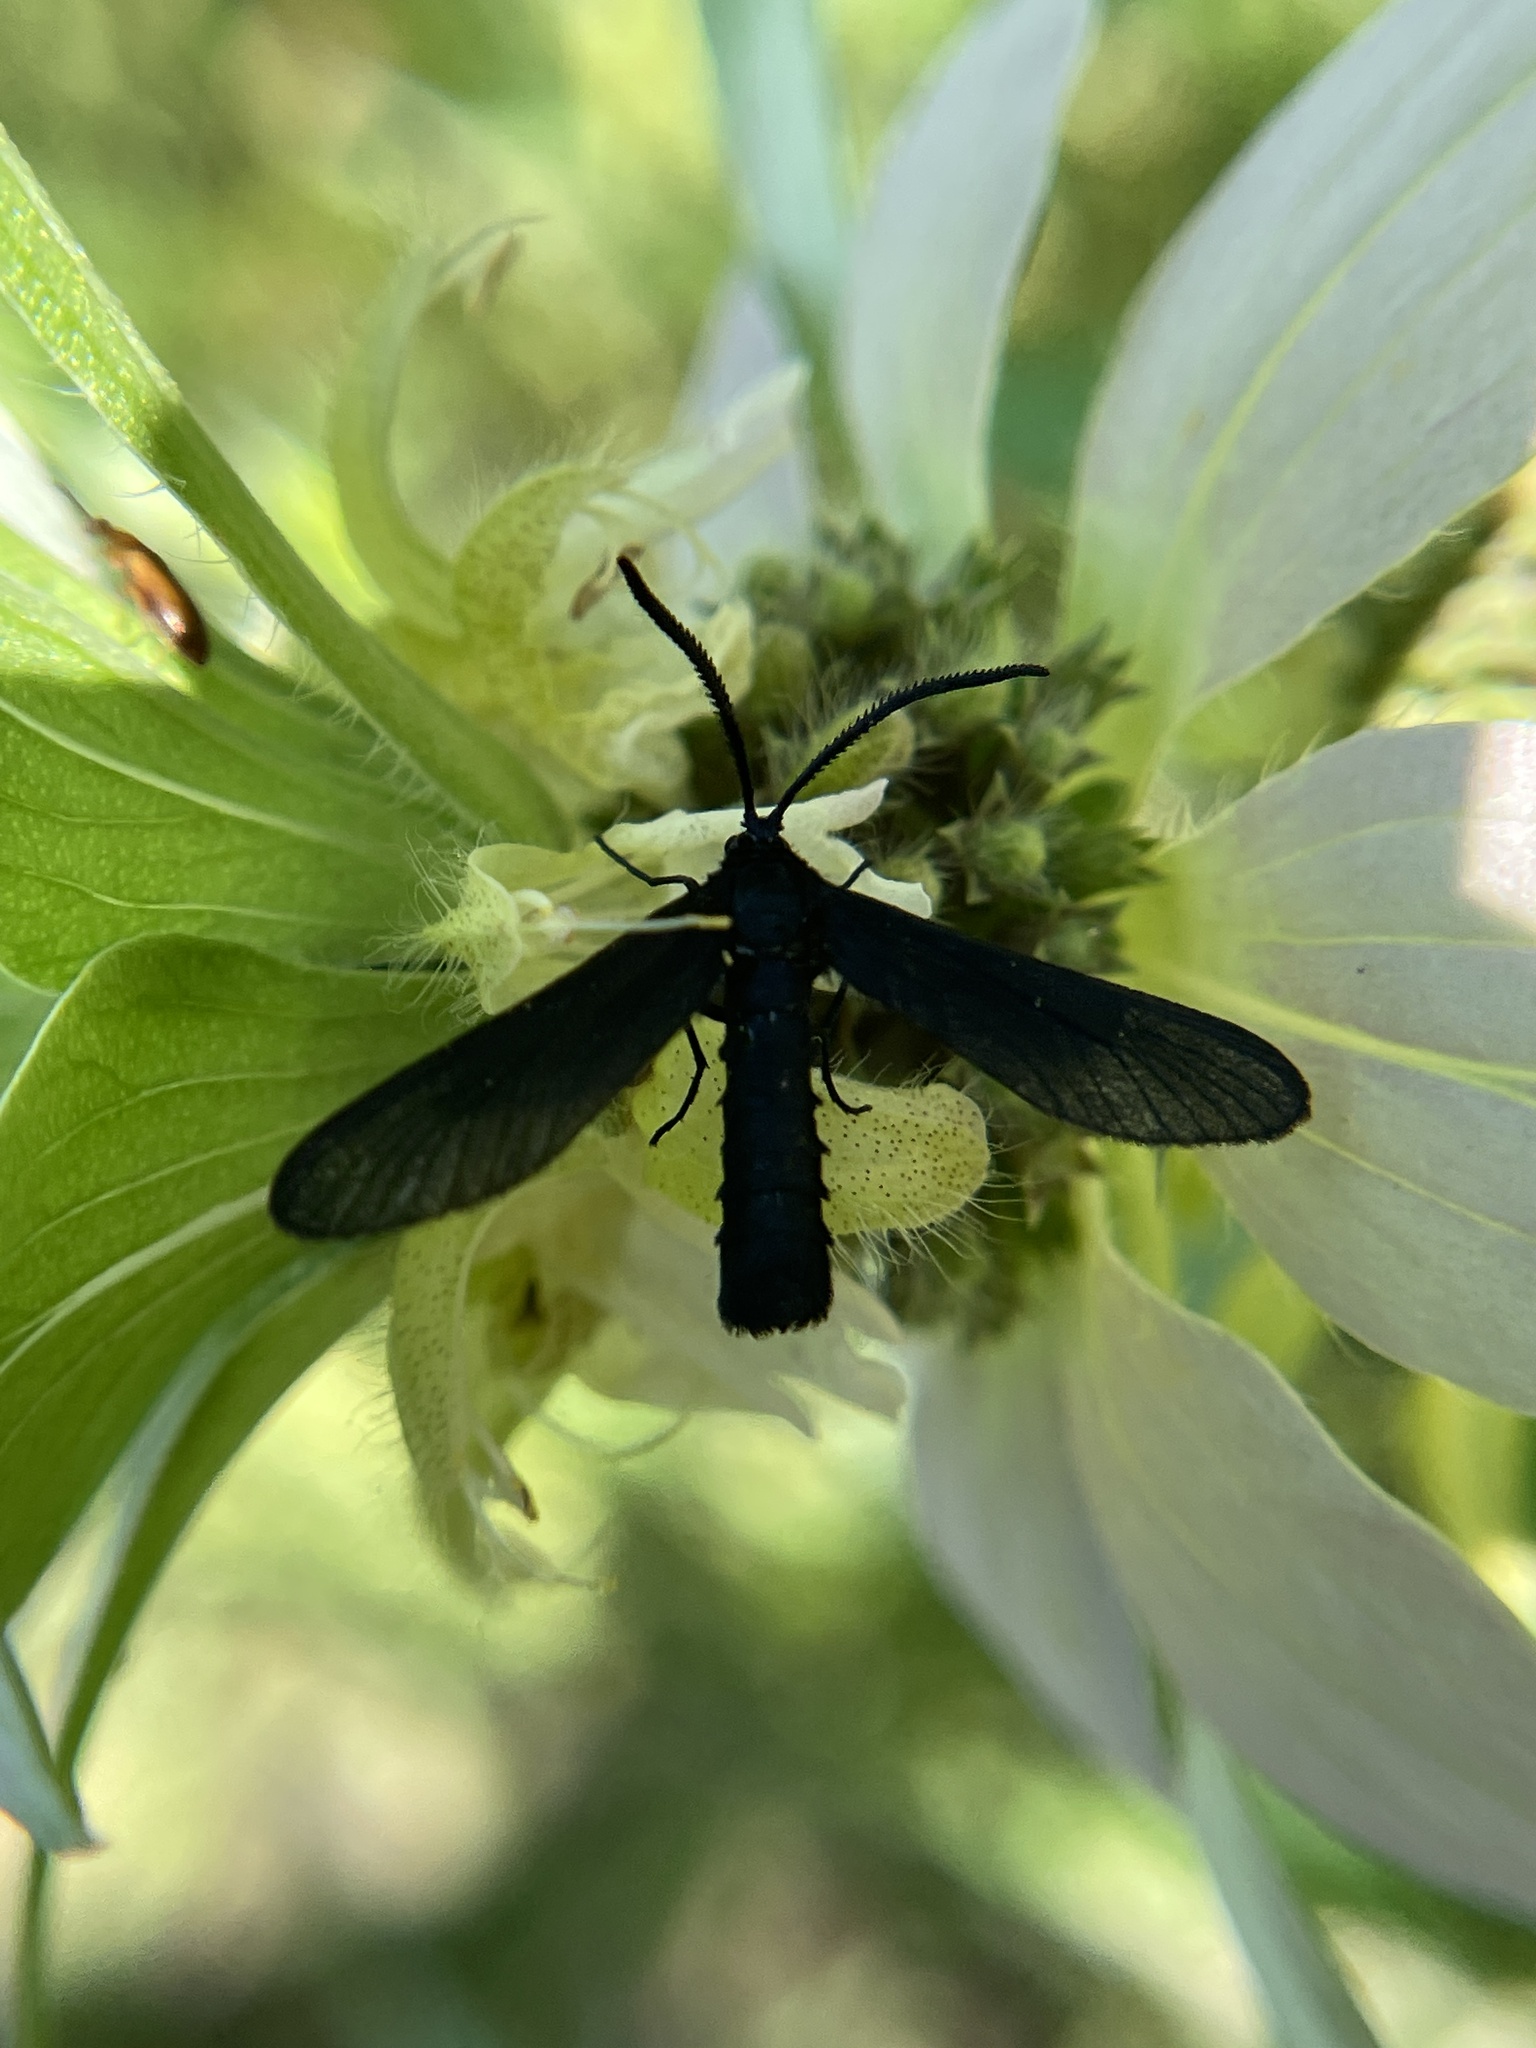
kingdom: Animalia
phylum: Arthropoda
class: Insecta
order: Lepidoptera
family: Zygaenidae
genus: Harrisina
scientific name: Harrisina coracina
